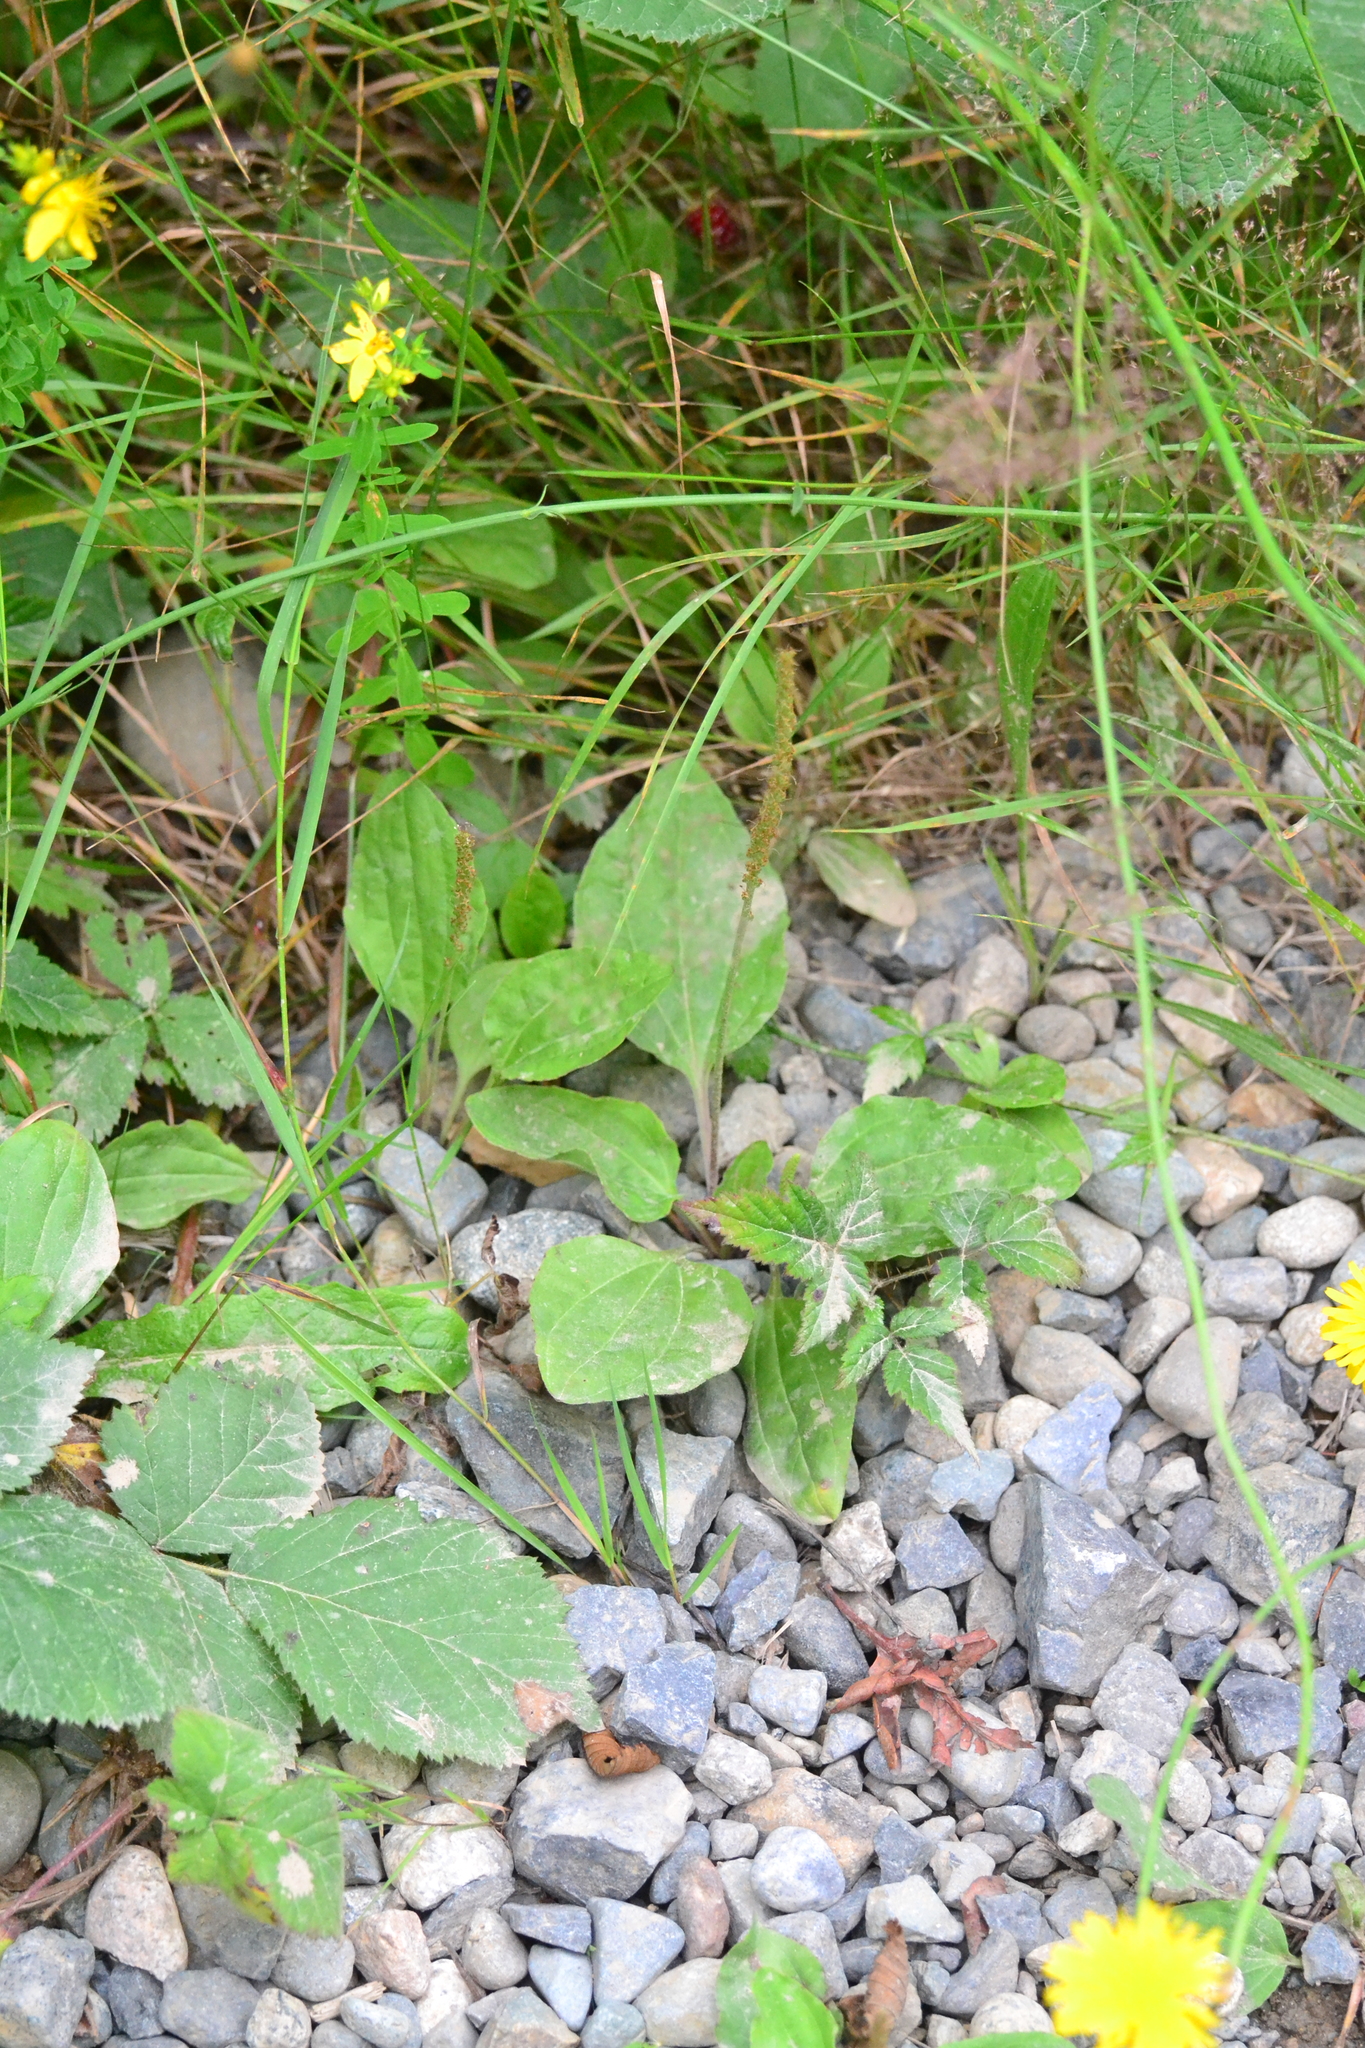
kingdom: Plantae
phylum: Tracheophyta
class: Magnoliopsida
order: Lamiales
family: Plantaginaceae
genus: Plantago
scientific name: Plantago major
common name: Common plantain
